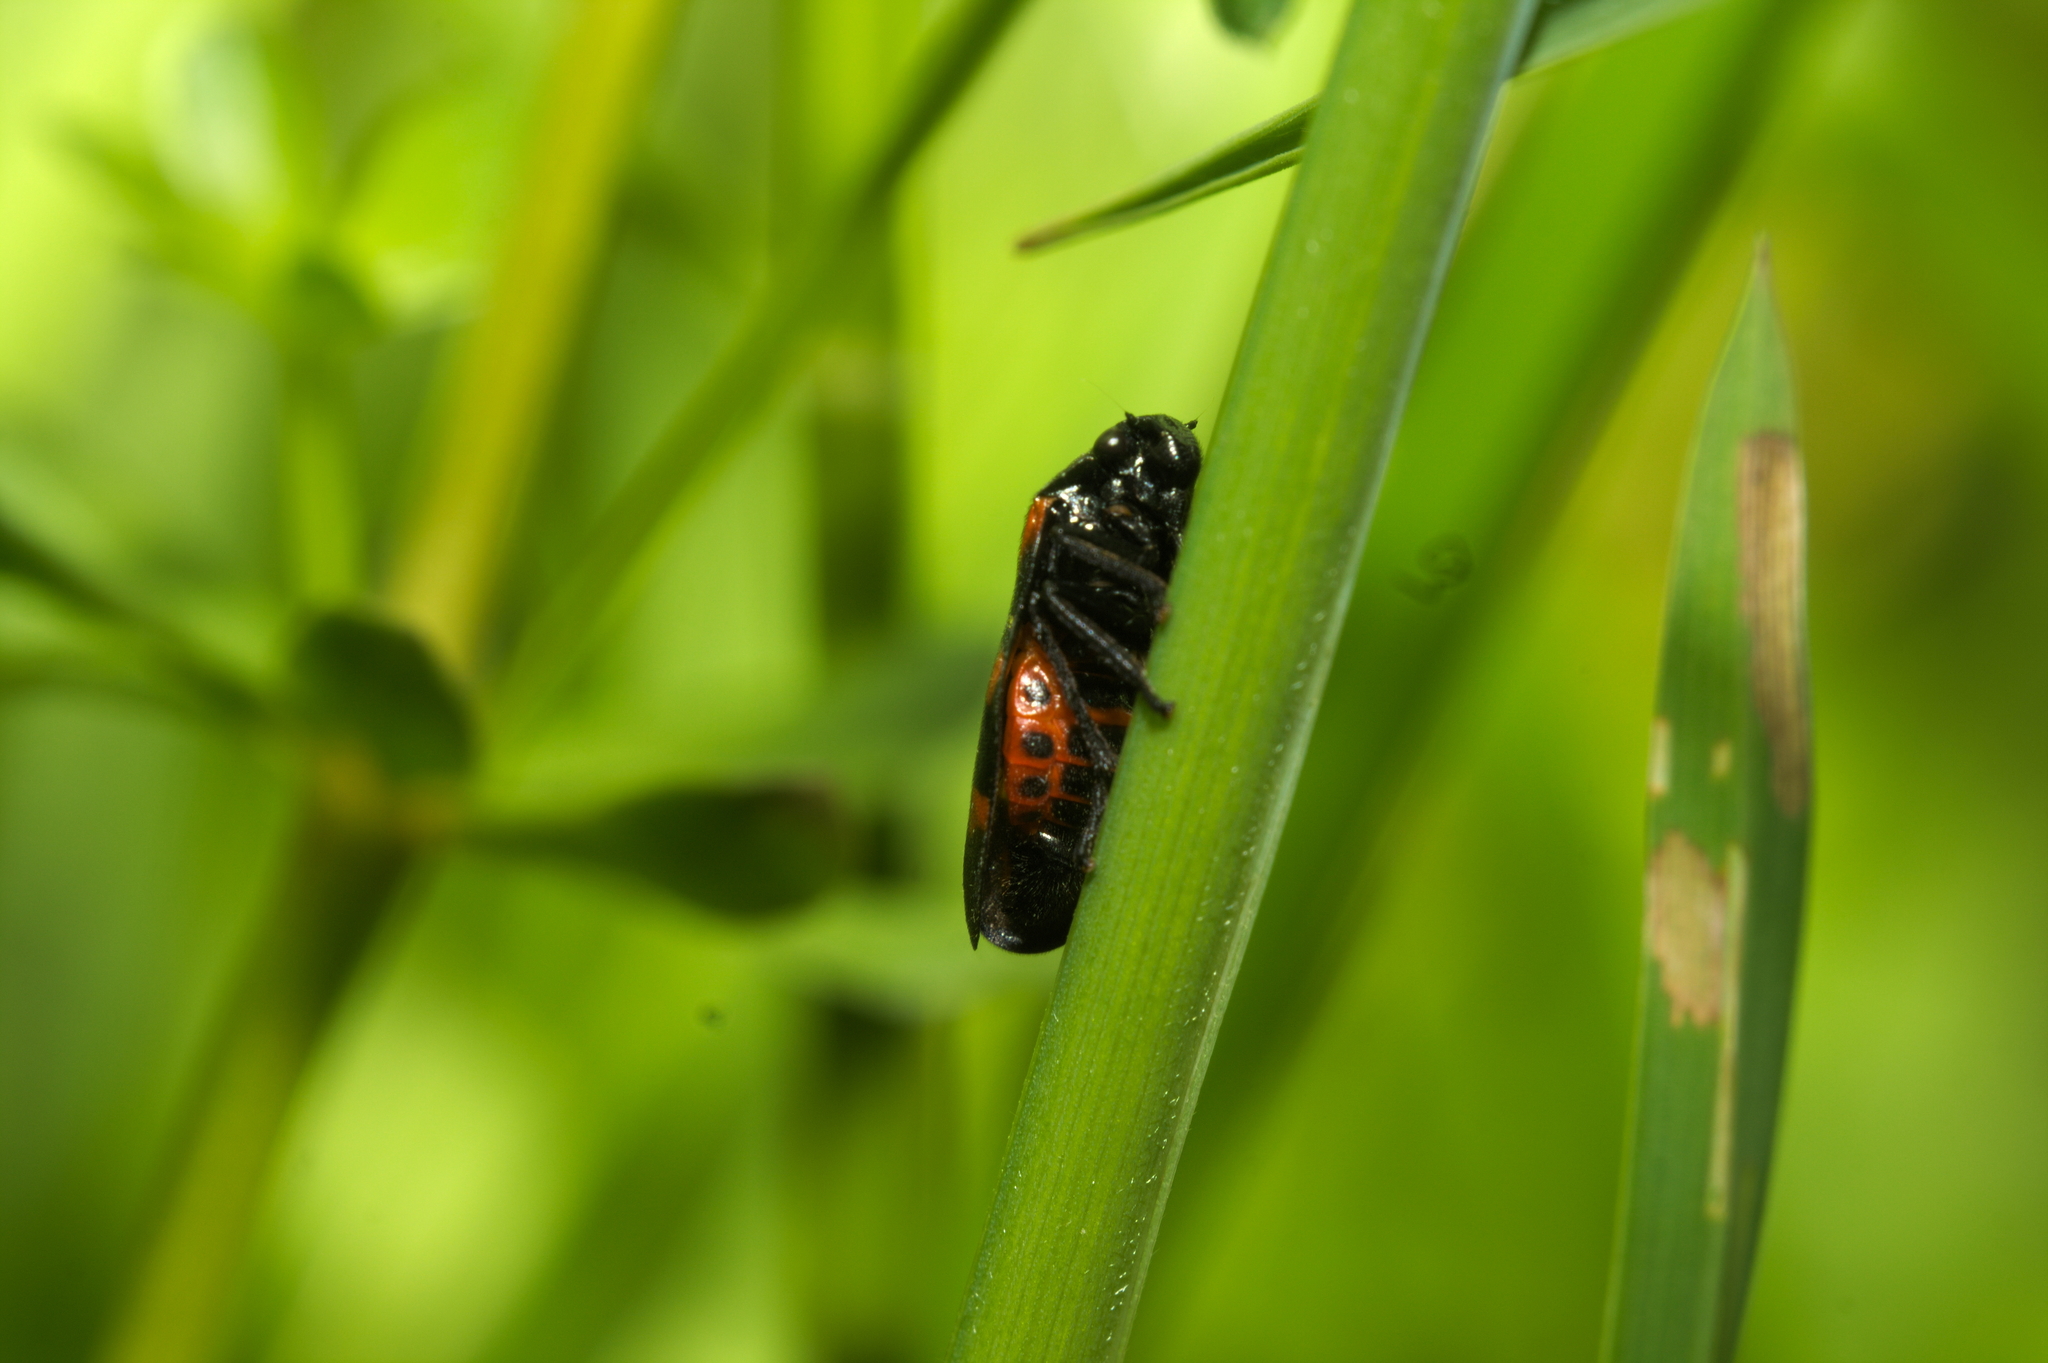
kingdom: Animalia
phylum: Arthropoda
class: Insecta
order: Hemiptera
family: Cercopidae
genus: Cercopis
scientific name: Cercopis sanguinolenta
